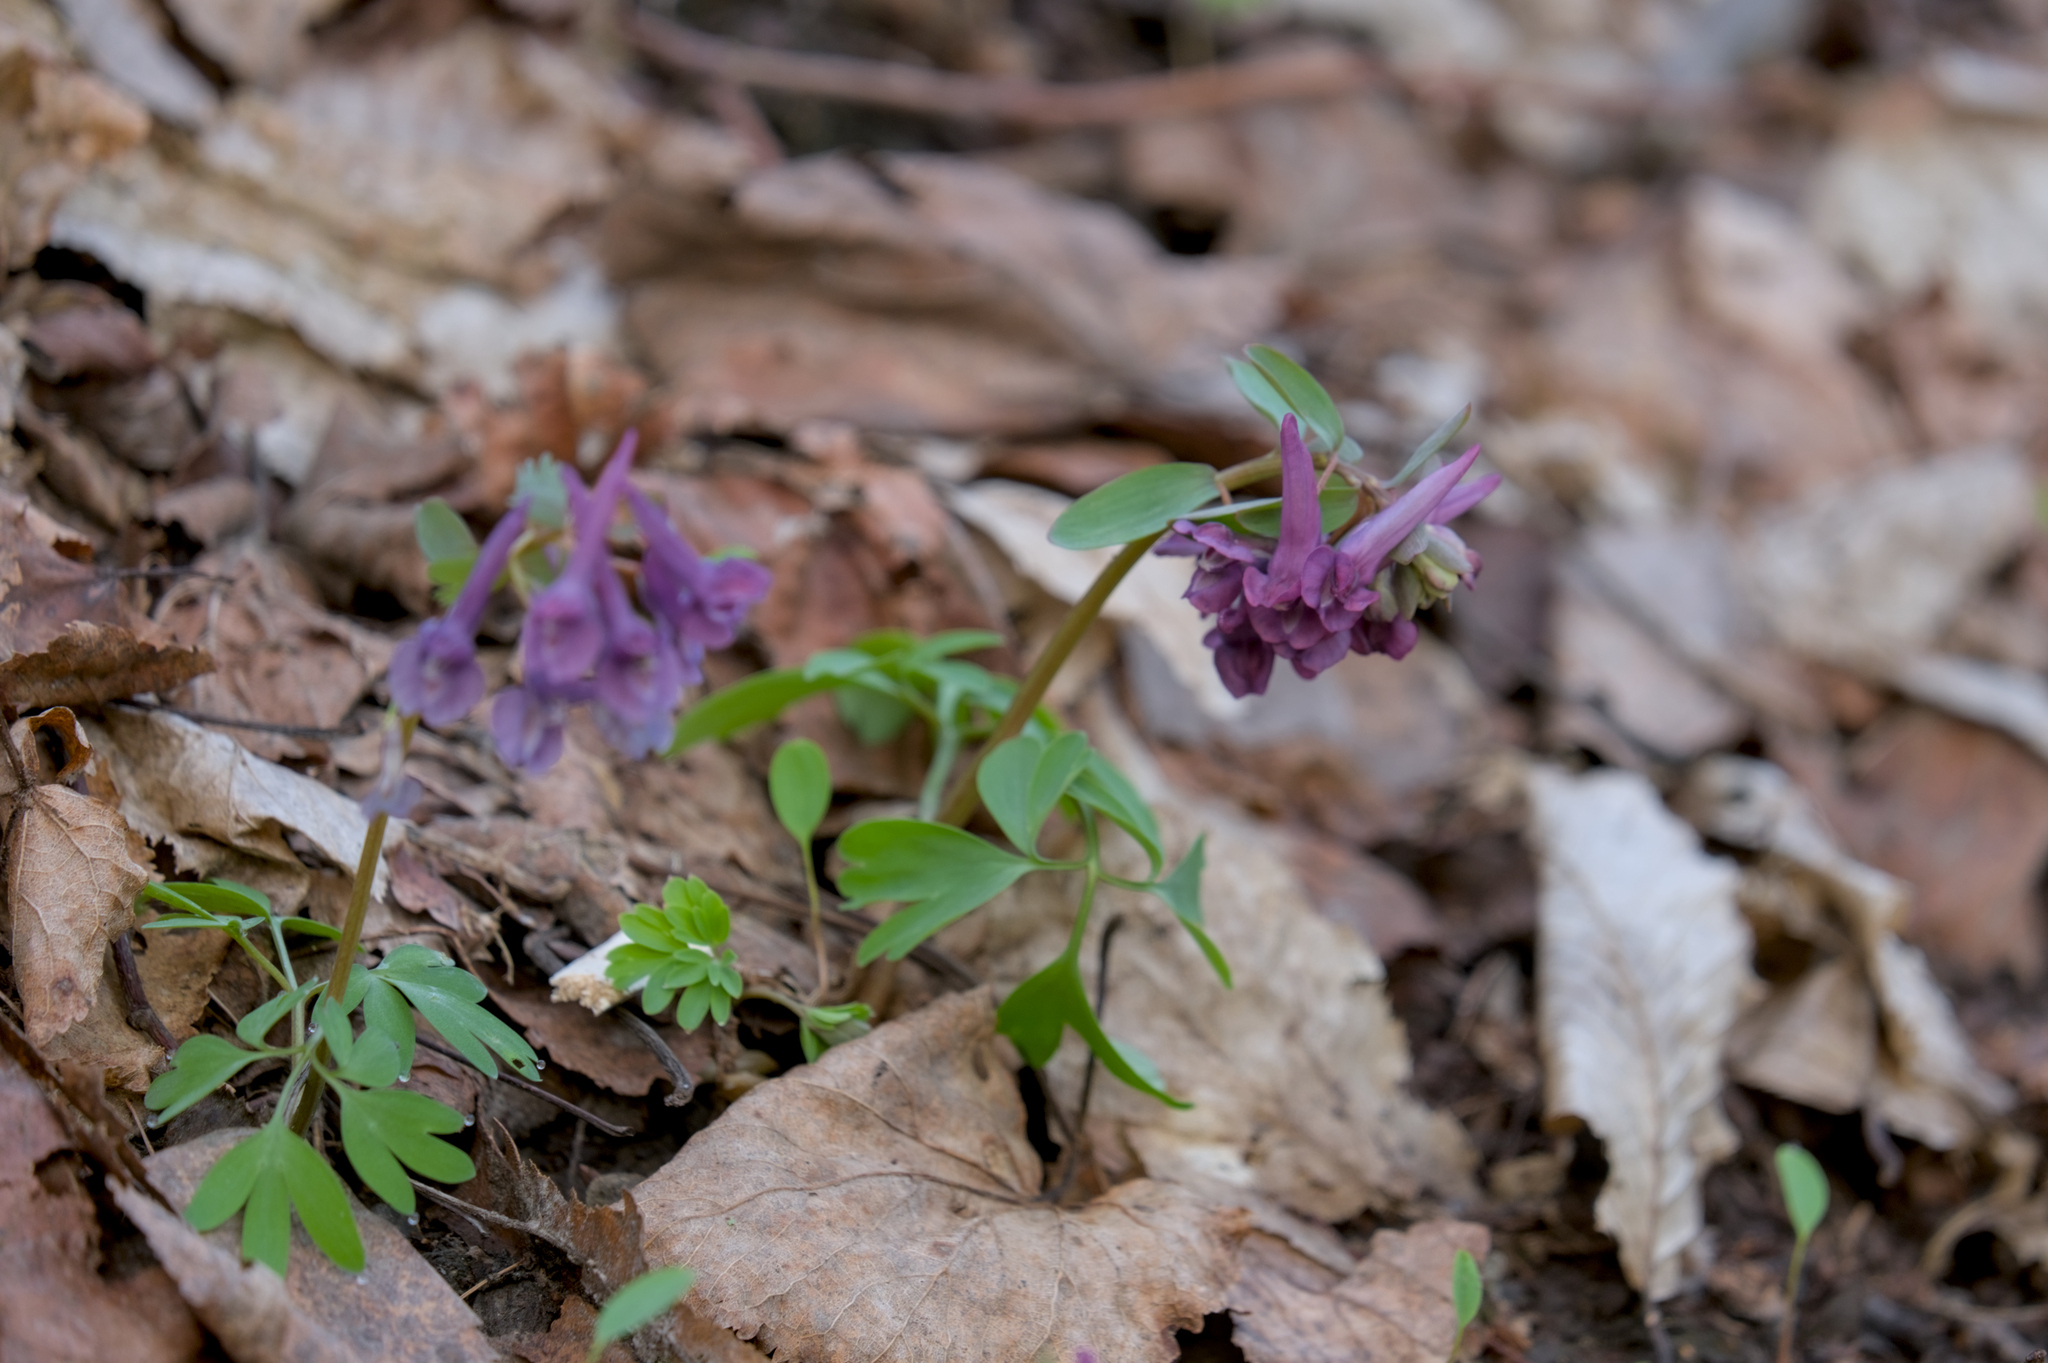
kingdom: Plantae
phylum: Tracheophyta
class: Magnoliopsida
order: Ranunculales
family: Papaveraceae
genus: Corydalis
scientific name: Corydalis cava
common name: Hollowroot
